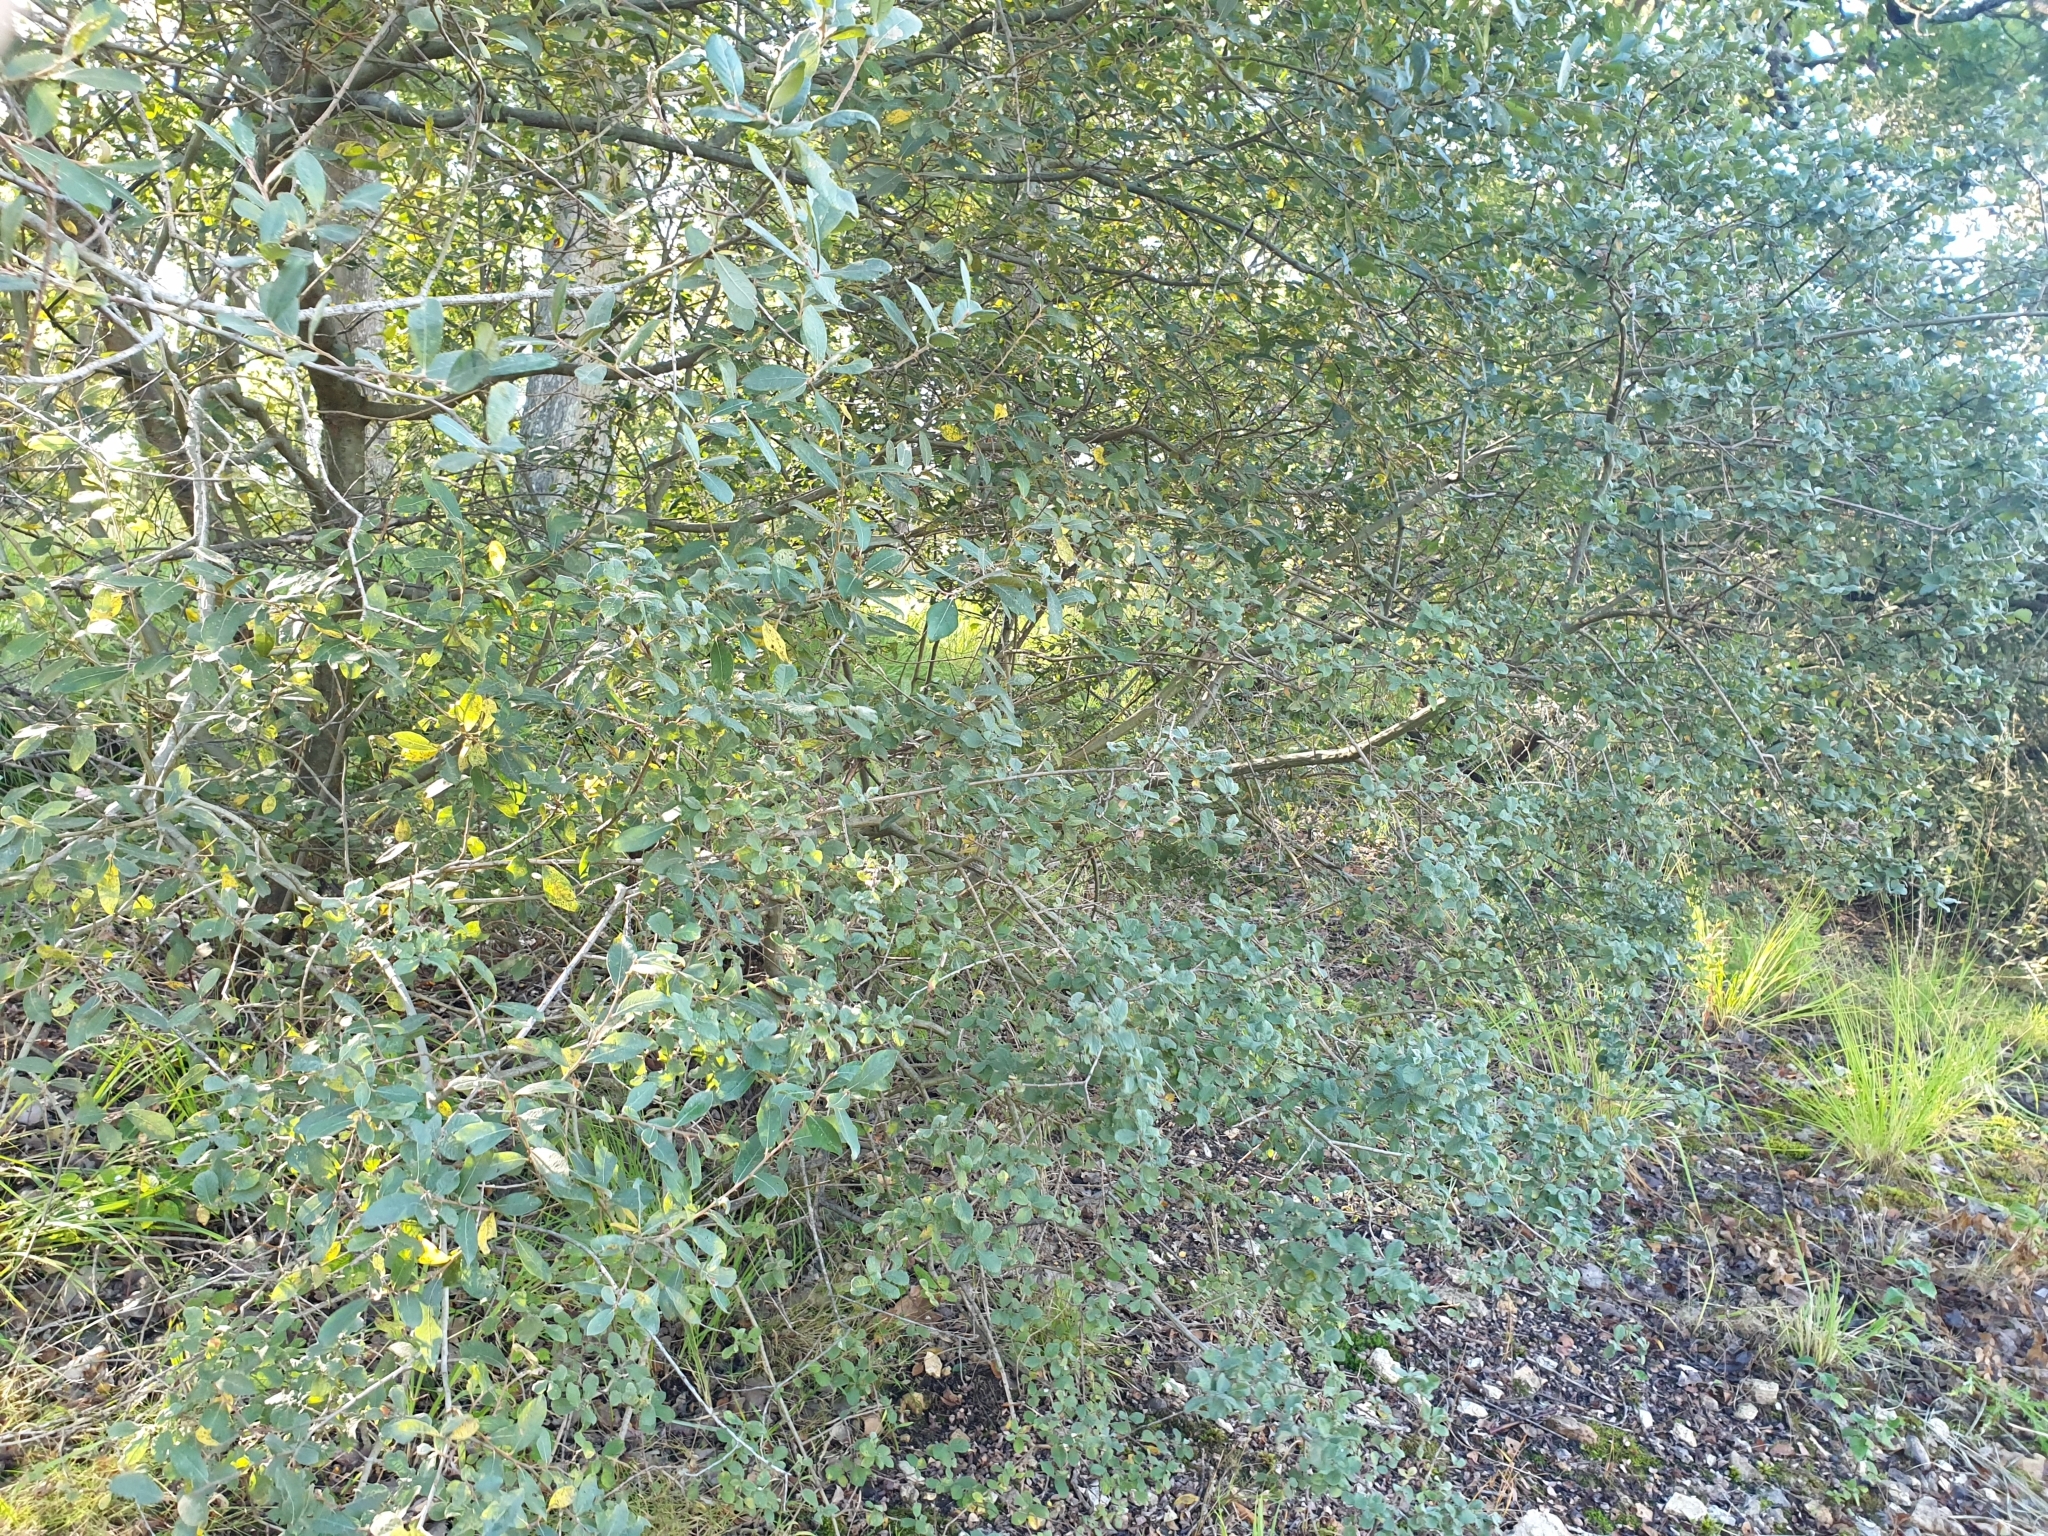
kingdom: Plantae
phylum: Tracheophyta
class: Magnoliopsida
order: Malpighiales
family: Salicaceae
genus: Salix
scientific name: Salix aurita
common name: Eared willow
